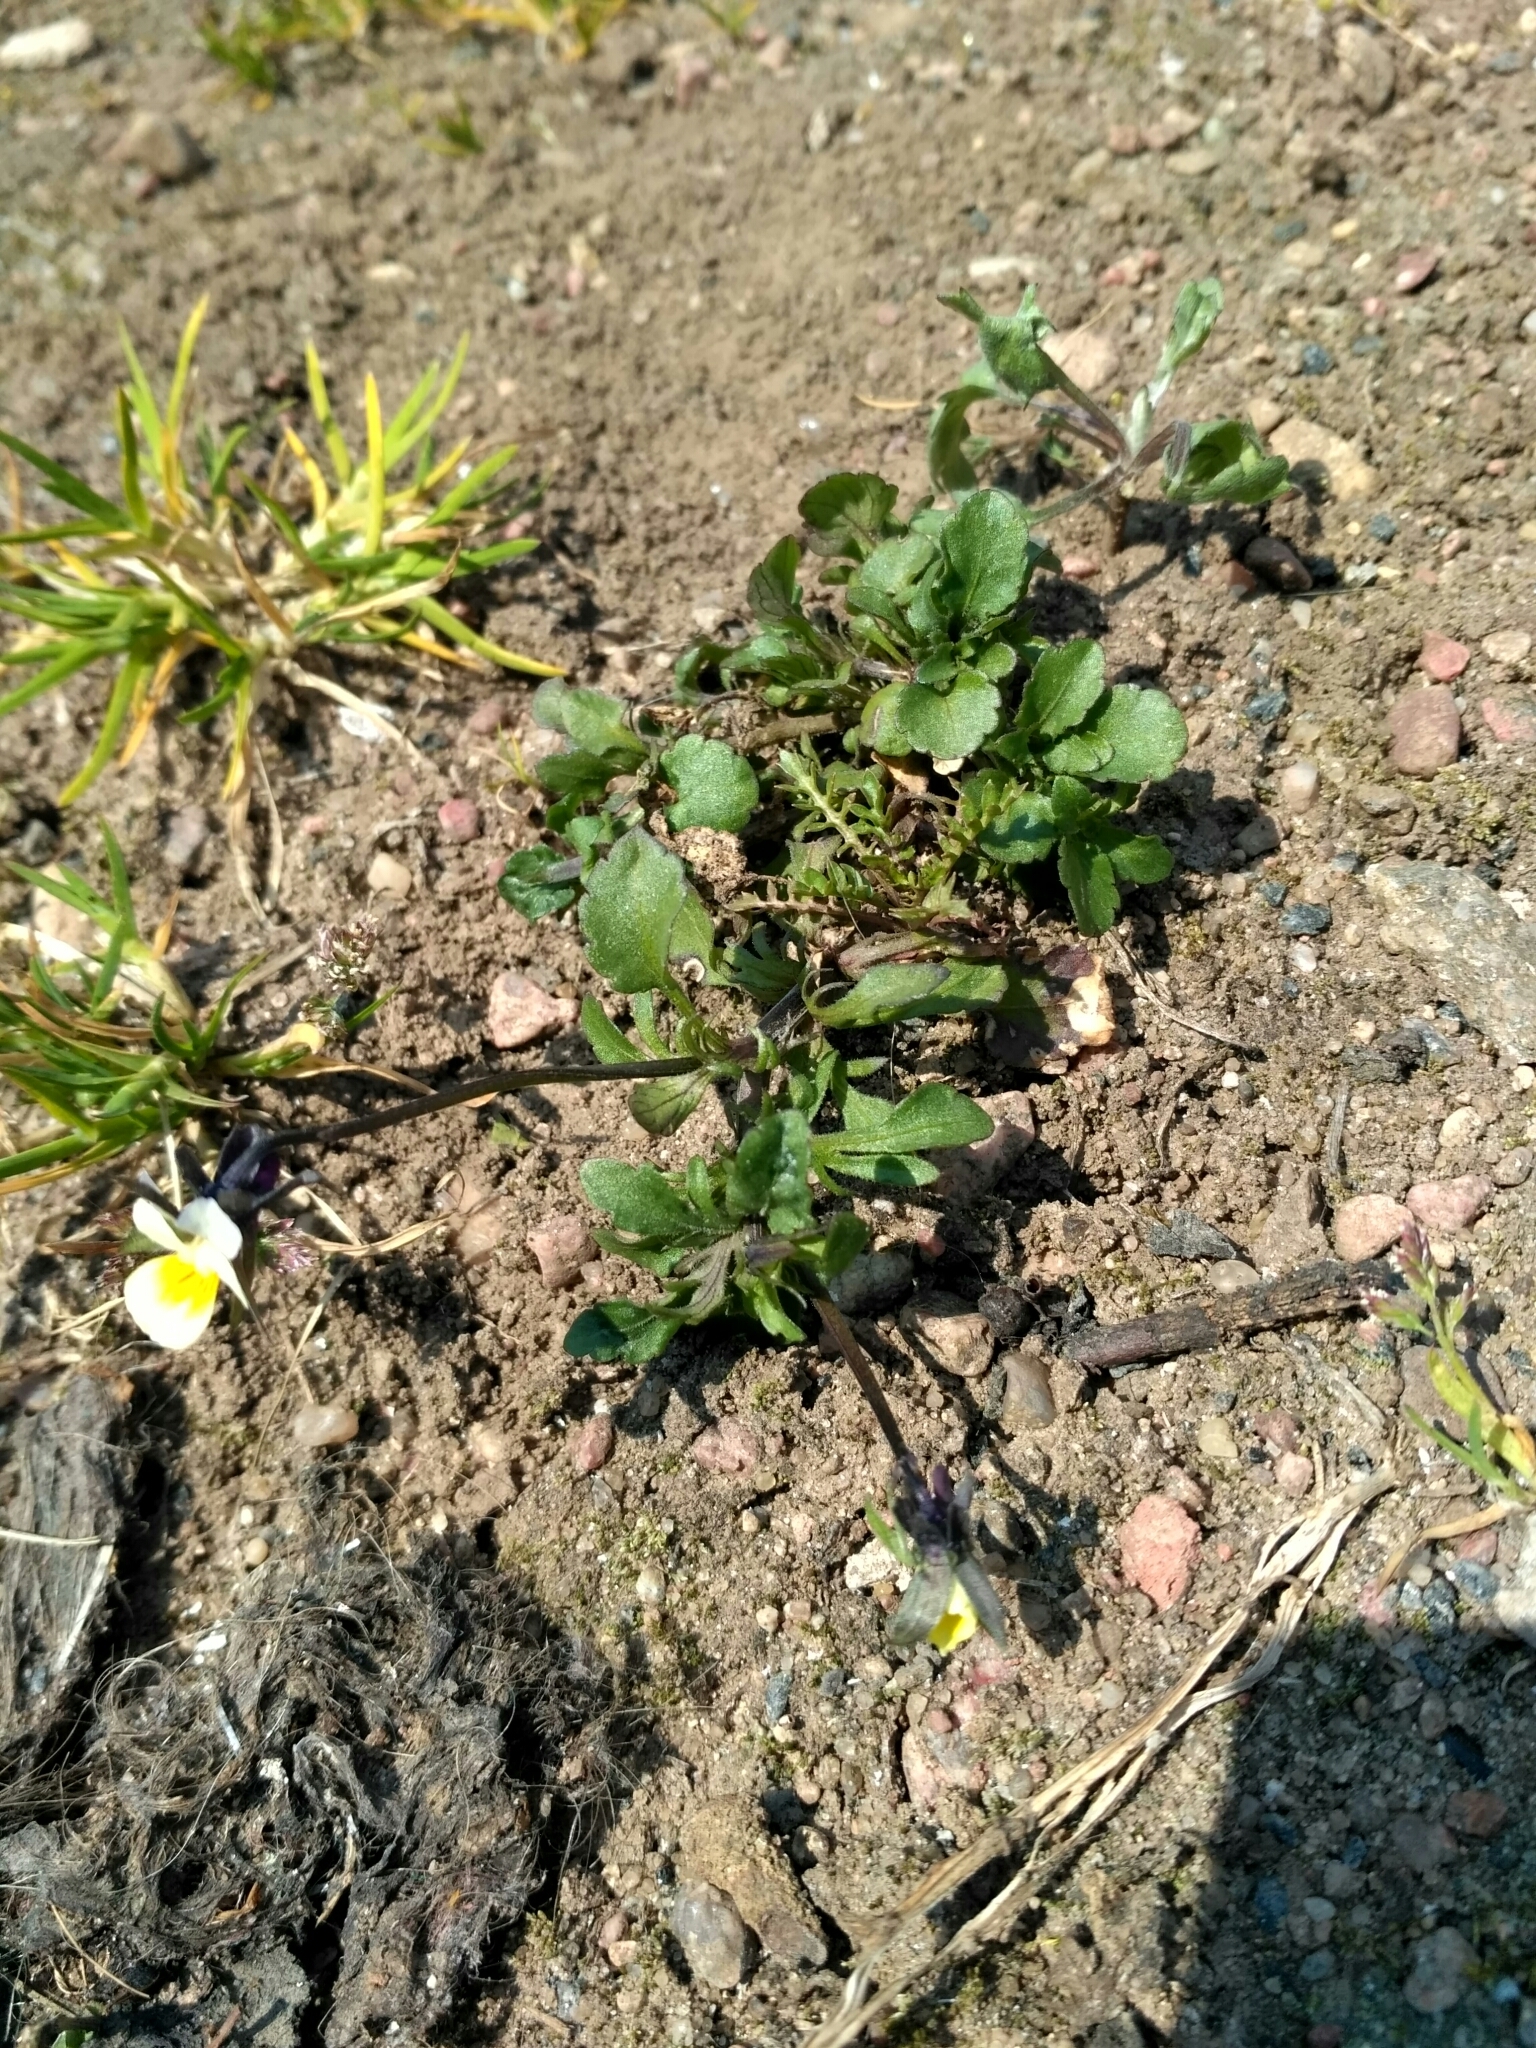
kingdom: Plantae
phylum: Tracheophyta
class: Magnoliopsida
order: Malpighiales
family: Violaceae
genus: Viola
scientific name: Viola arvensis
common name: Field pansy
